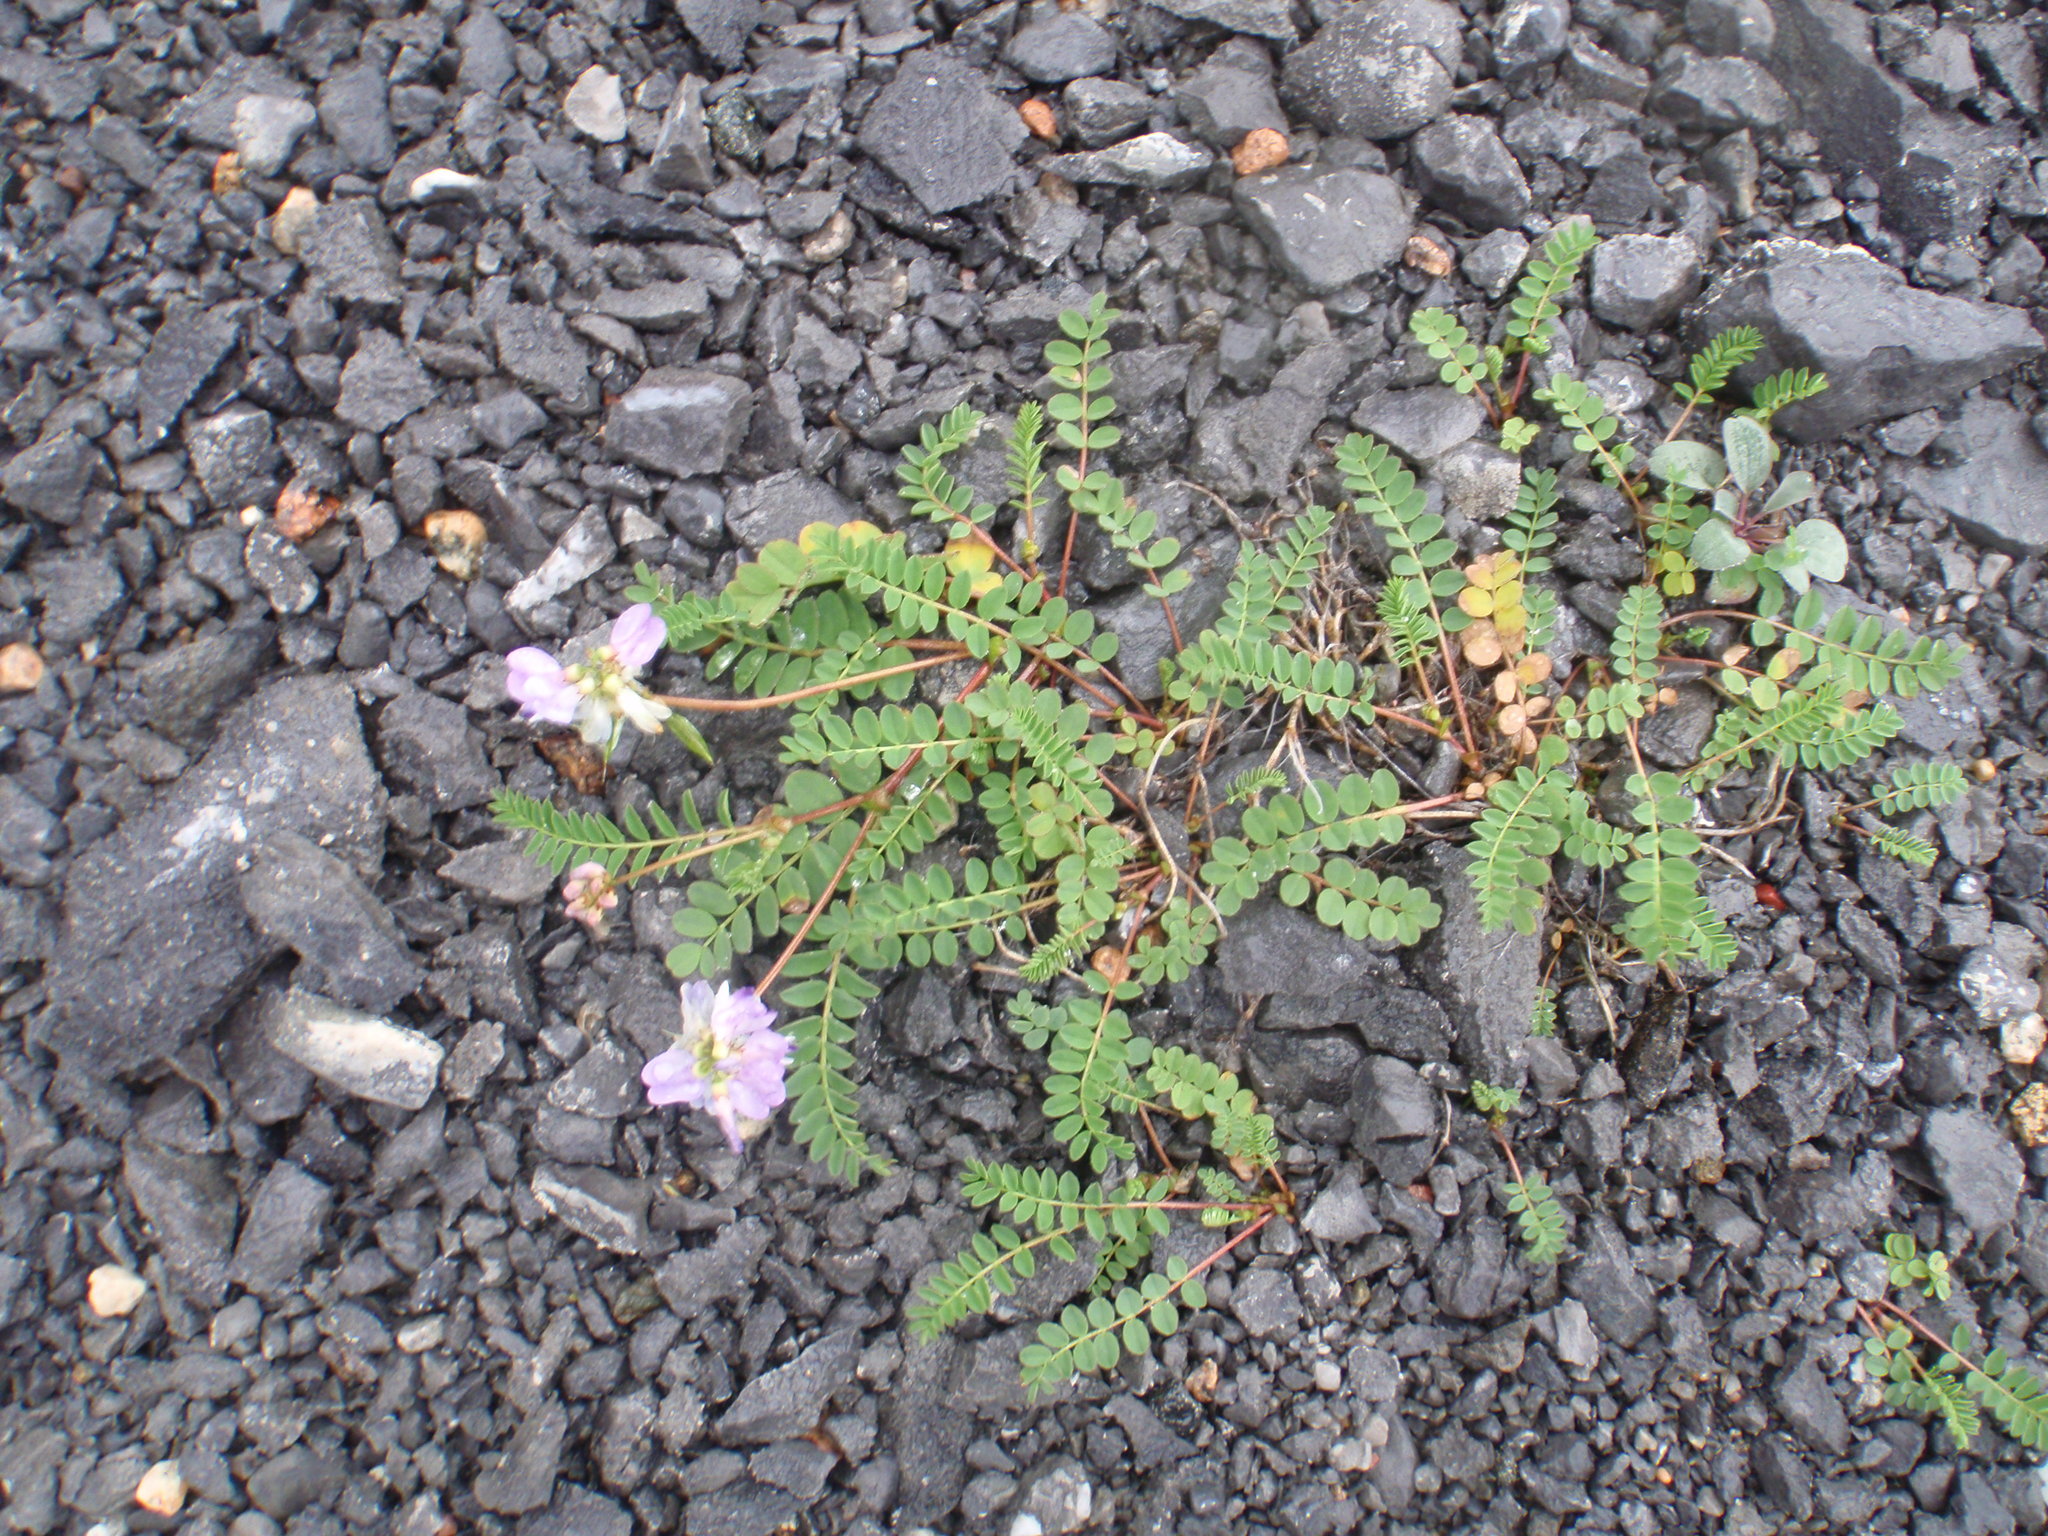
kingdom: Plantae
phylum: Tracheophyta
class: Magnoliopsida
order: Fabales
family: Fabaceae
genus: Astragalus
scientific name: Astragalus alpinus
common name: Alpine milk-vetch
